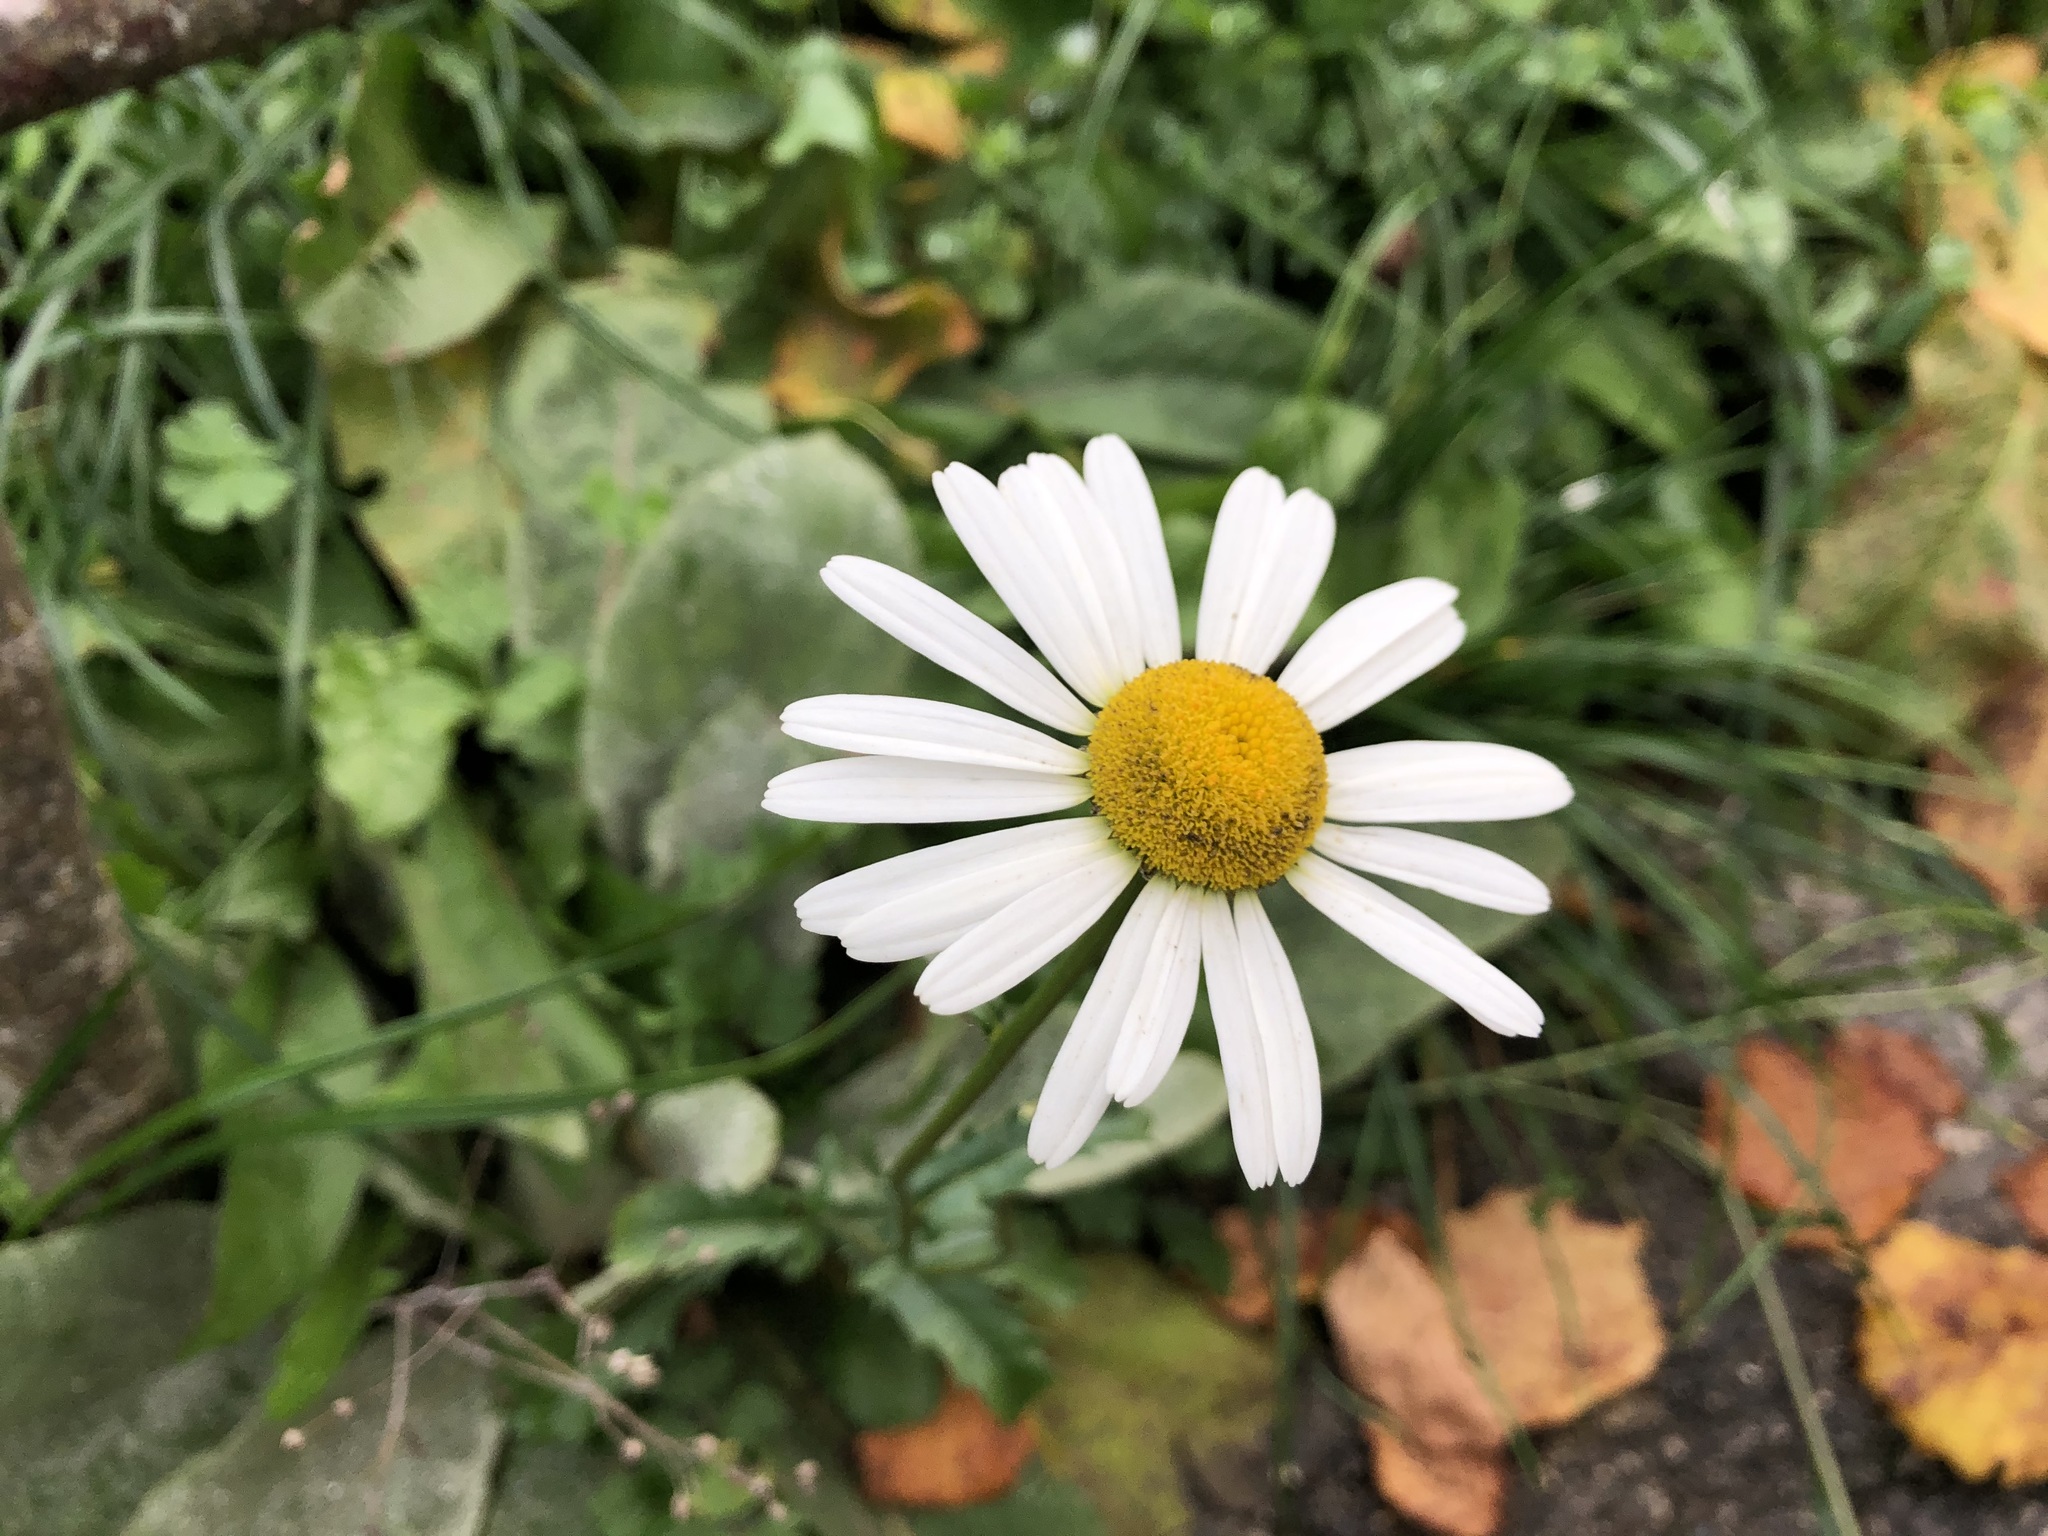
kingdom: Plantae
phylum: Tracheophyta
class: Magnoliopsida
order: Asterales
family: Asteraceae
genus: Leucanthemum
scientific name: Leucanthemum vulgare
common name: Oxeye daisy
